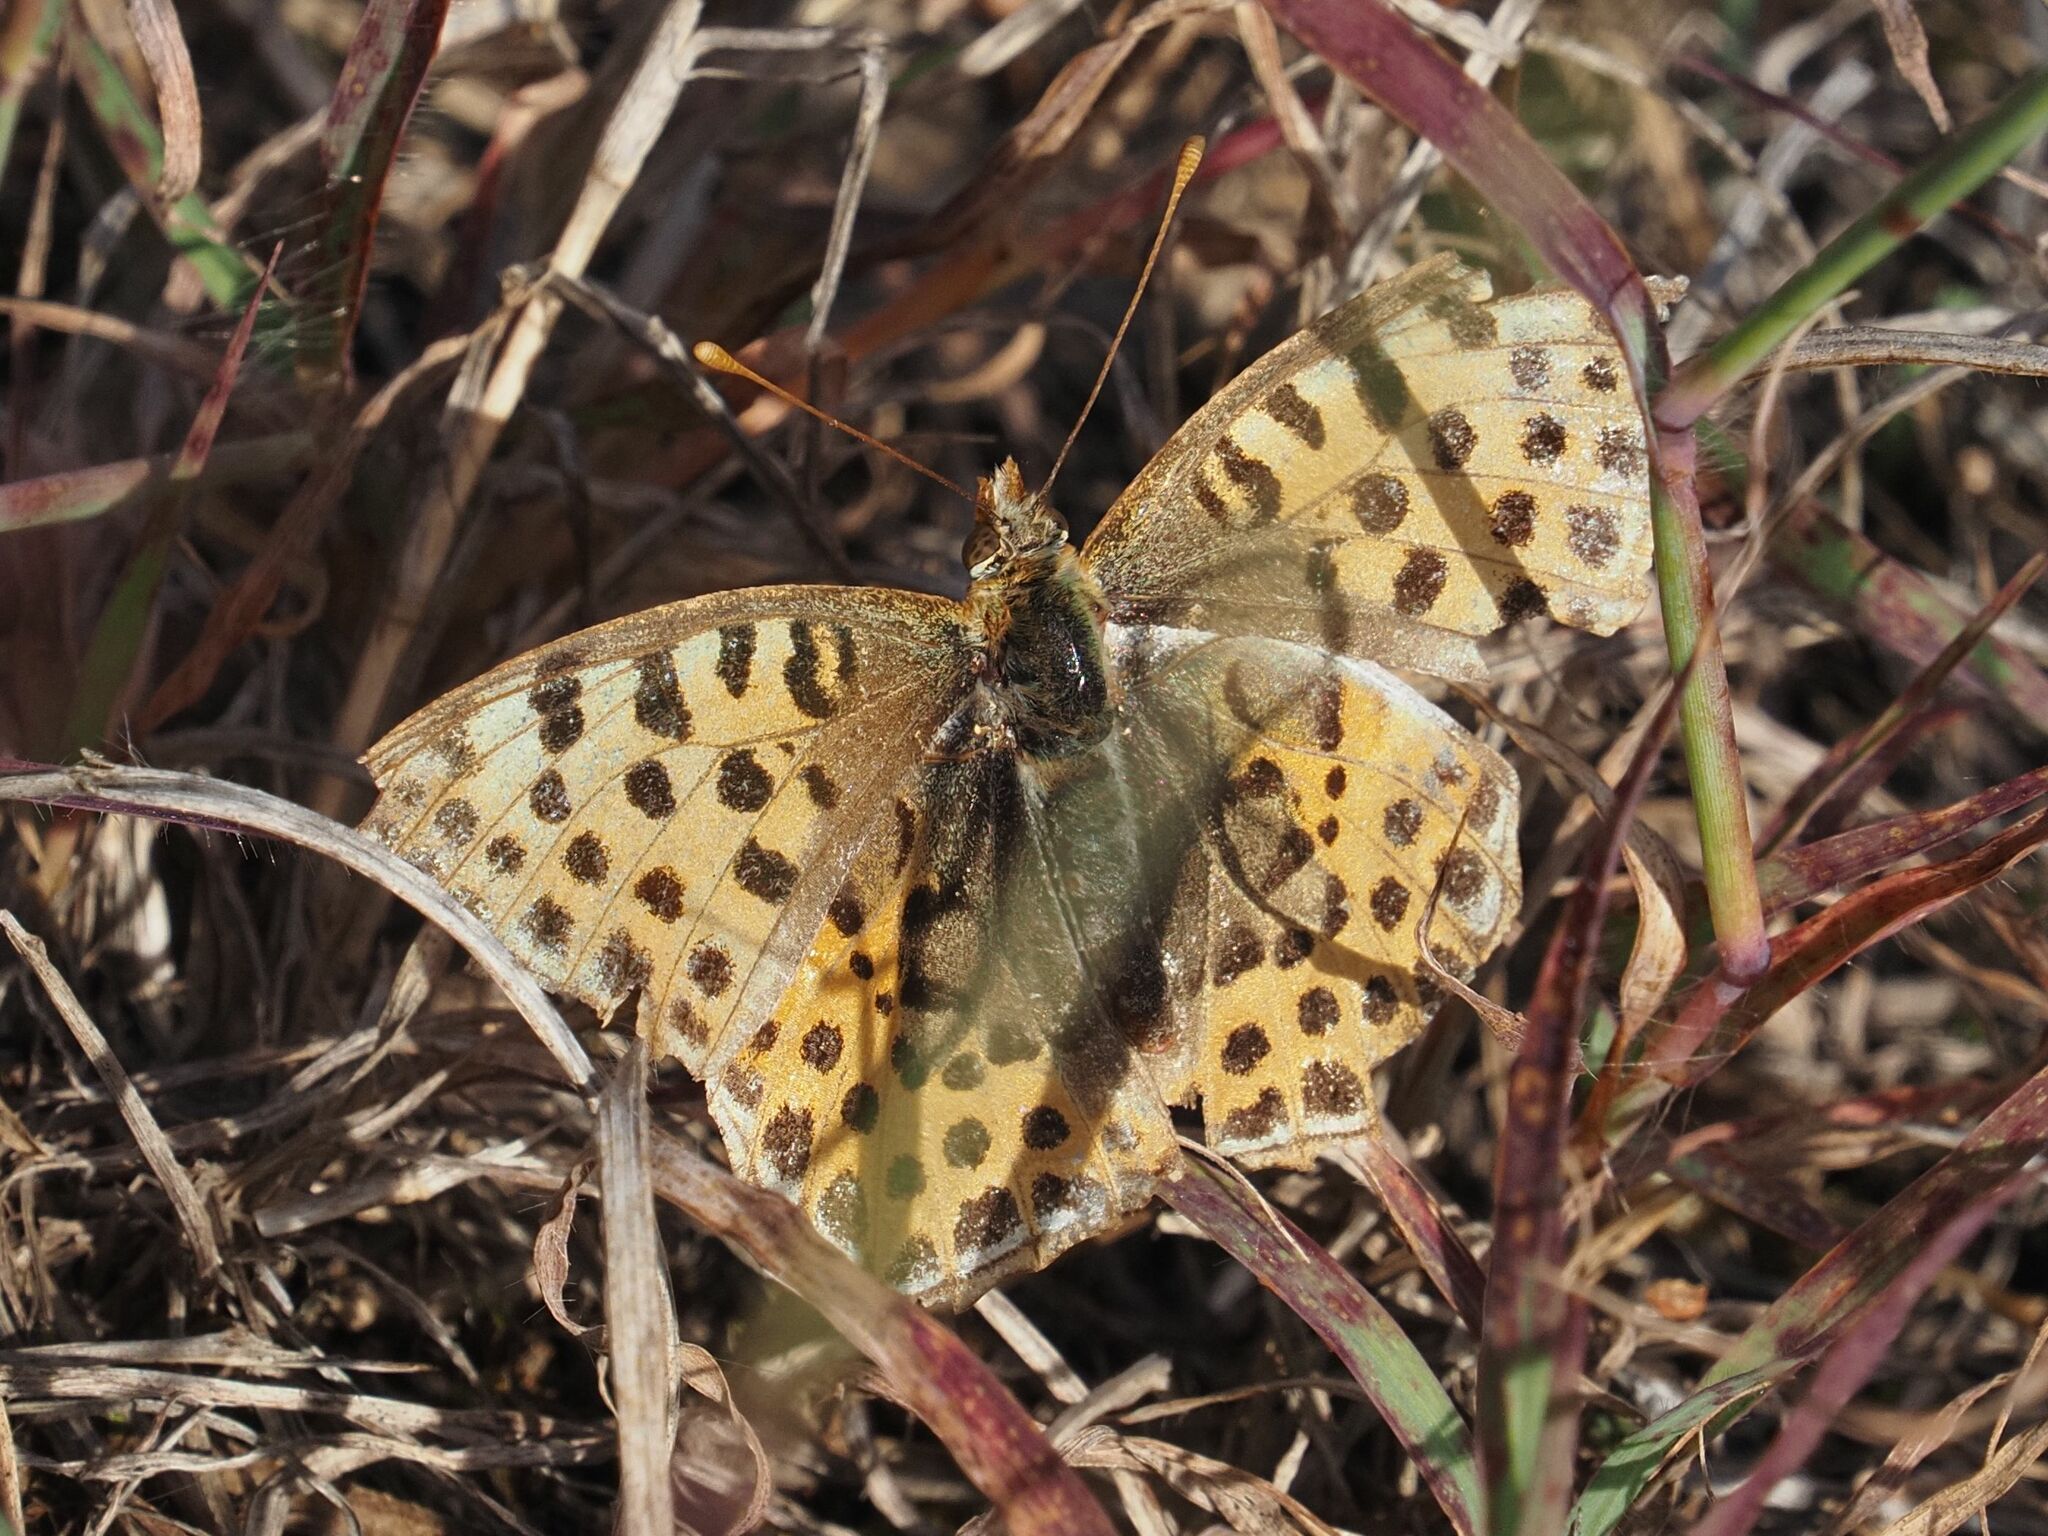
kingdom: Animalia
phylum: Arthropoda
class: Insecta
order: Lepidoptera
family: Nymphalidae
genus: Issoria
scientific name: Issoria lathonia
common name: Queen of spain fritillary
